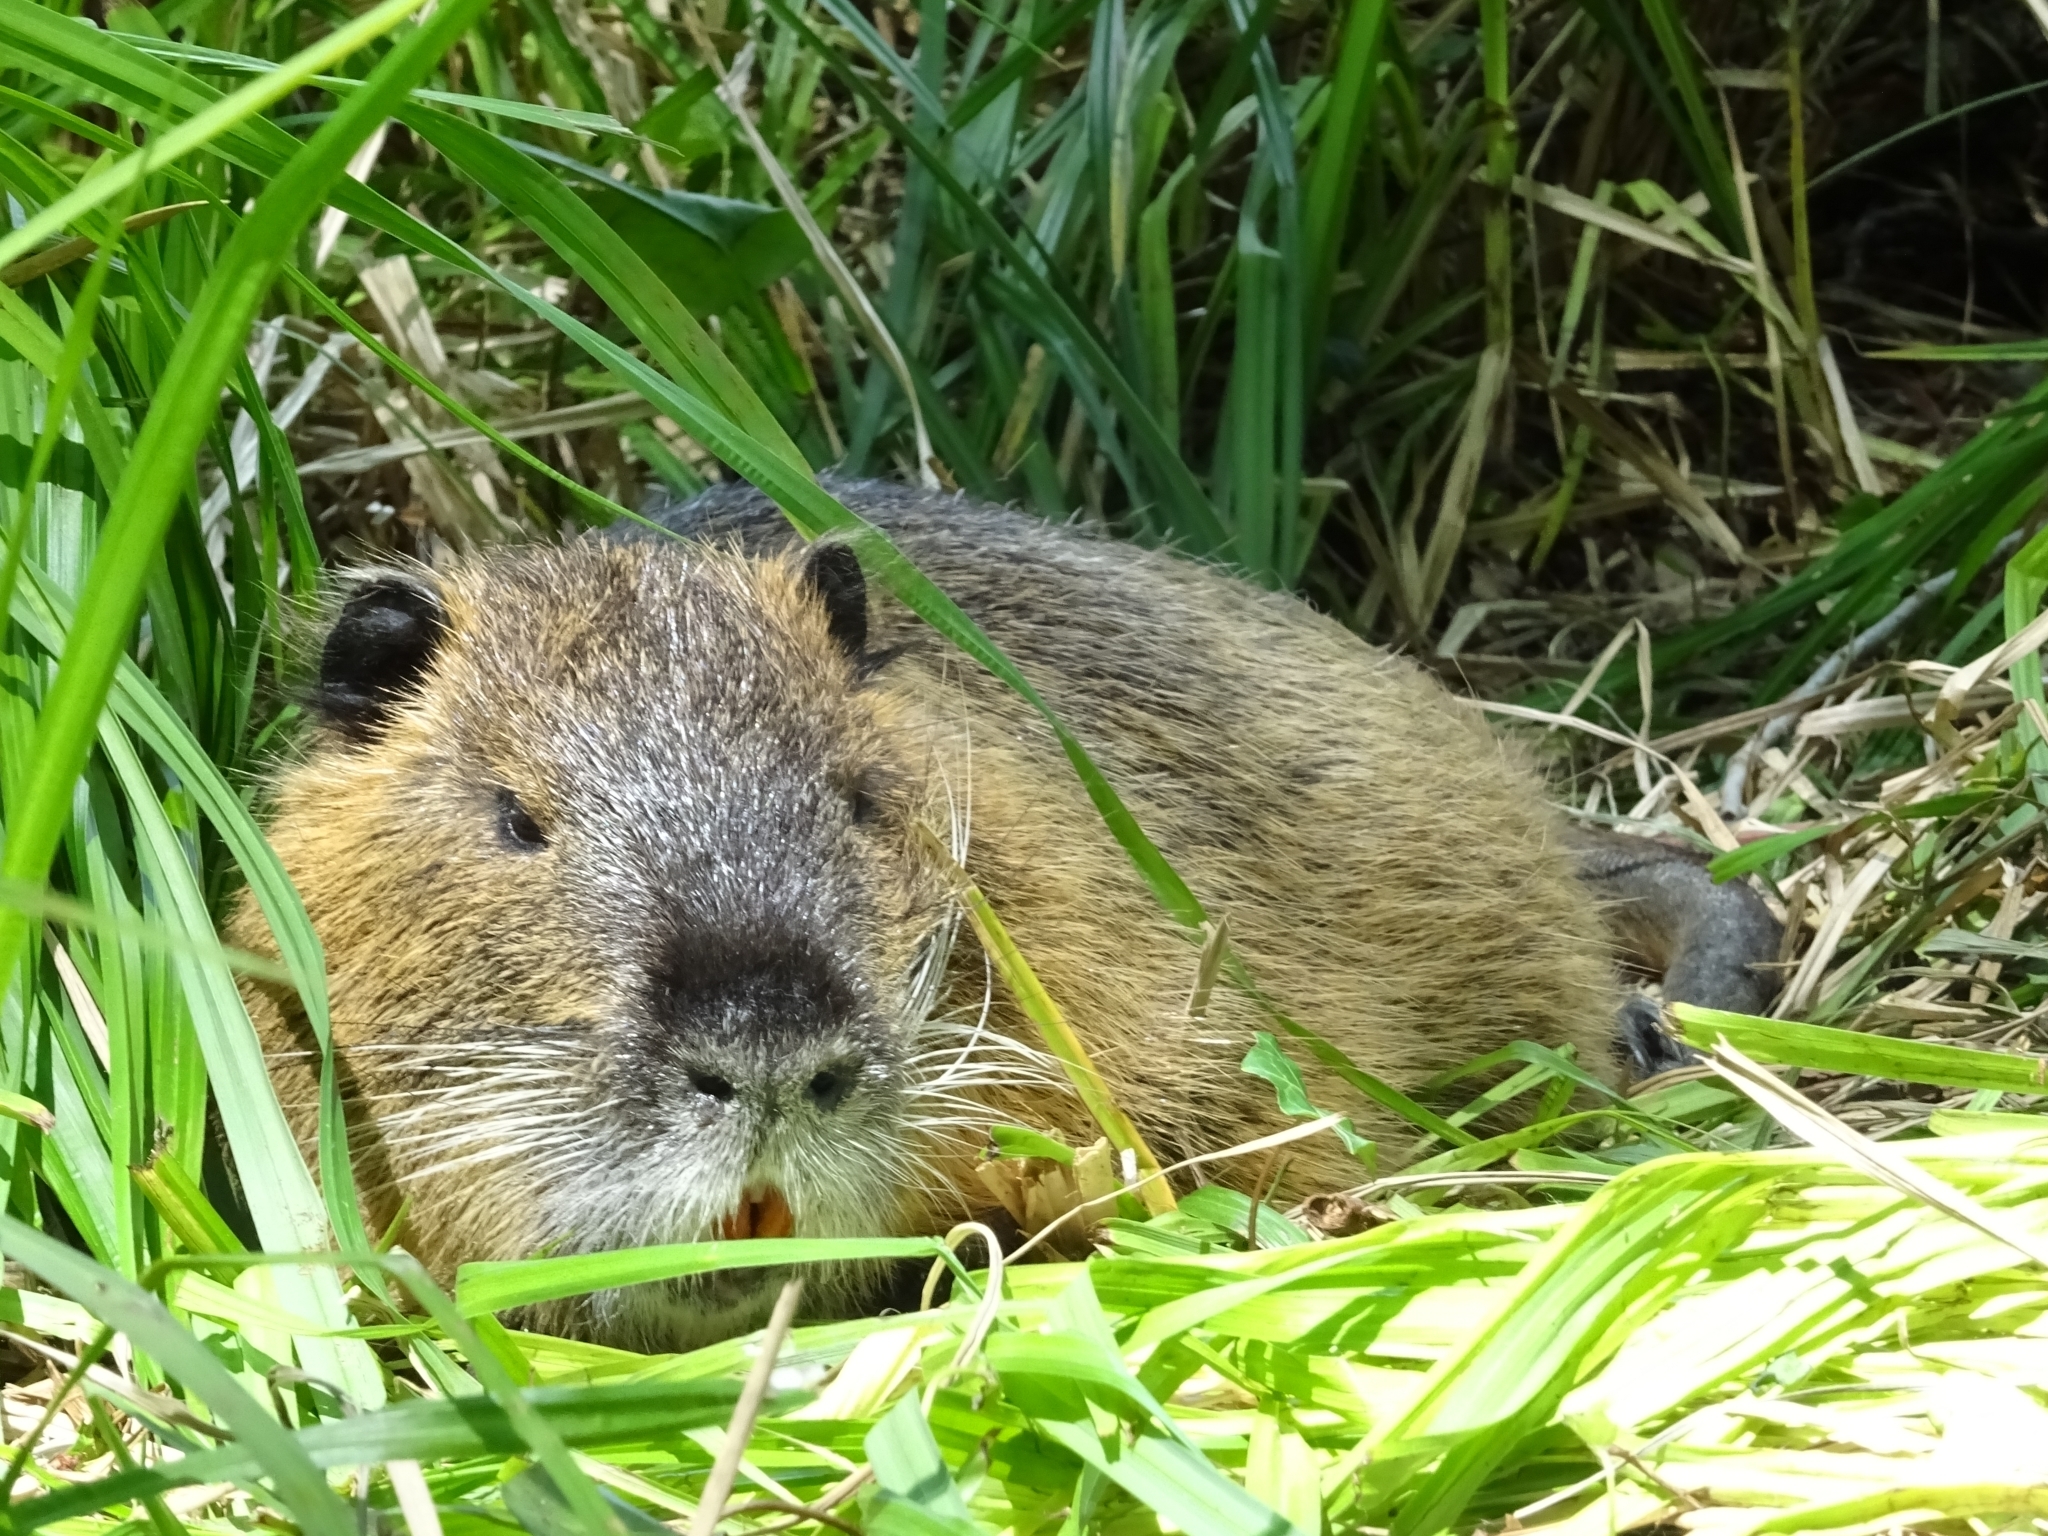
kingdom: Animalia
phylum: Chordata
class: Mammalia
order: Rodentia
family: Myocastoridae
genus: Myocastor
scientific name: Myocastor coypus
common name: Coypu
